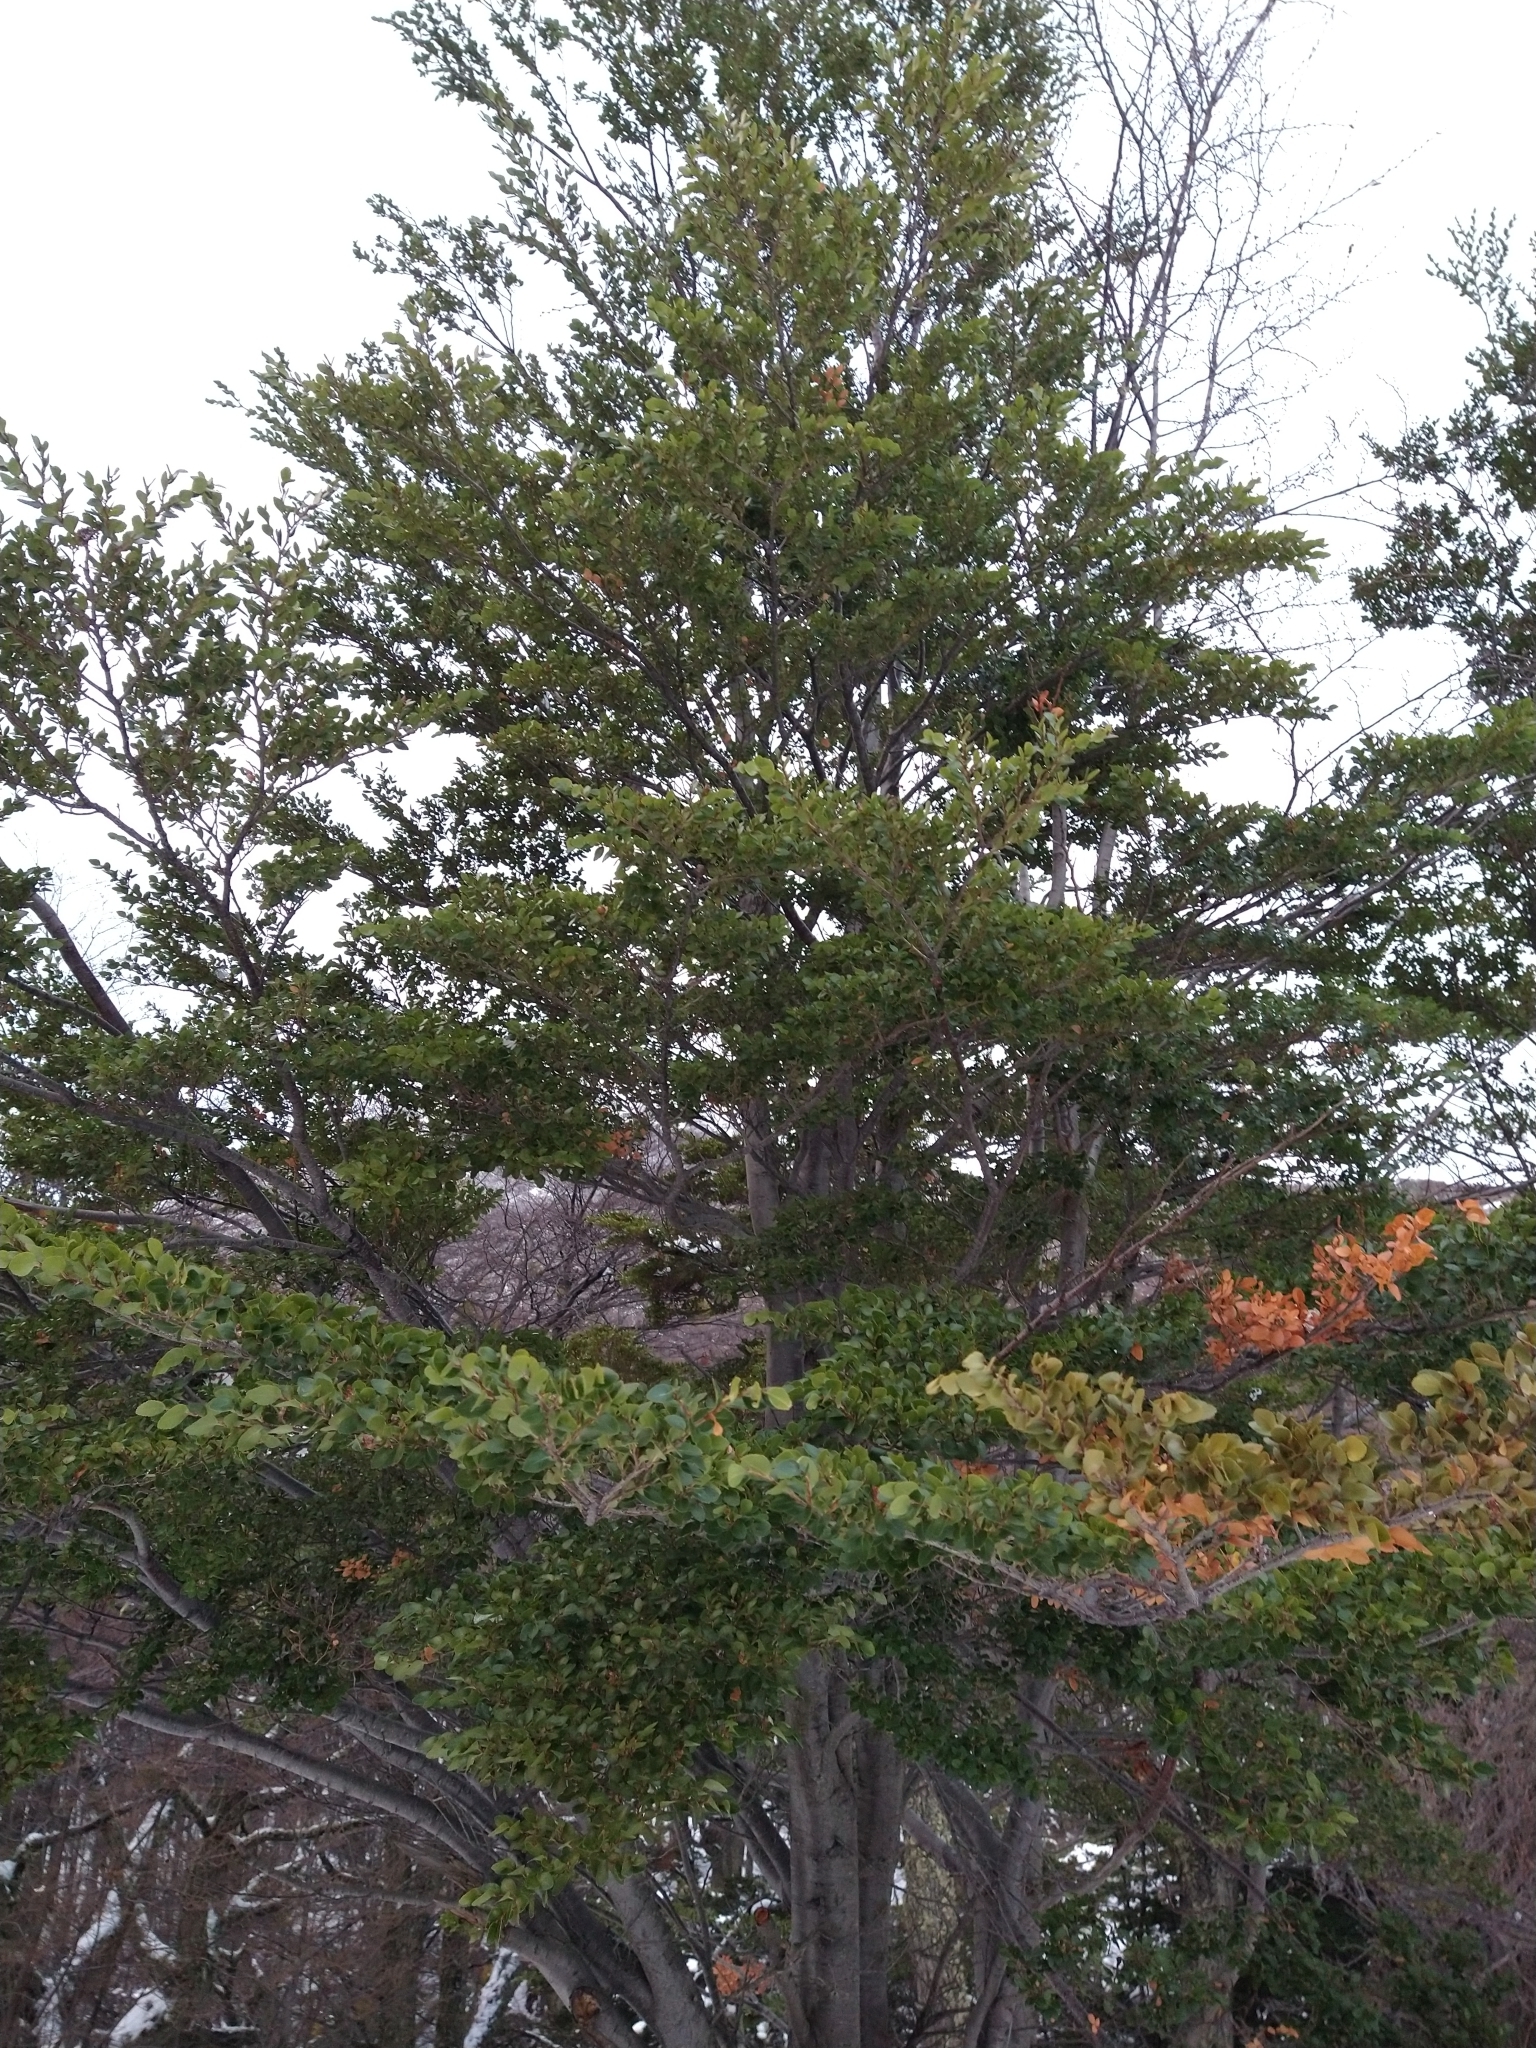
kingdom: Plantae
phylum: Tracheophyta
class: Magnoliopsida
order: Fagales
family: Nothofagaceae
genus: Nothofagus
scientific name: Nothofagus betuloides
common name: Magellan's beech
